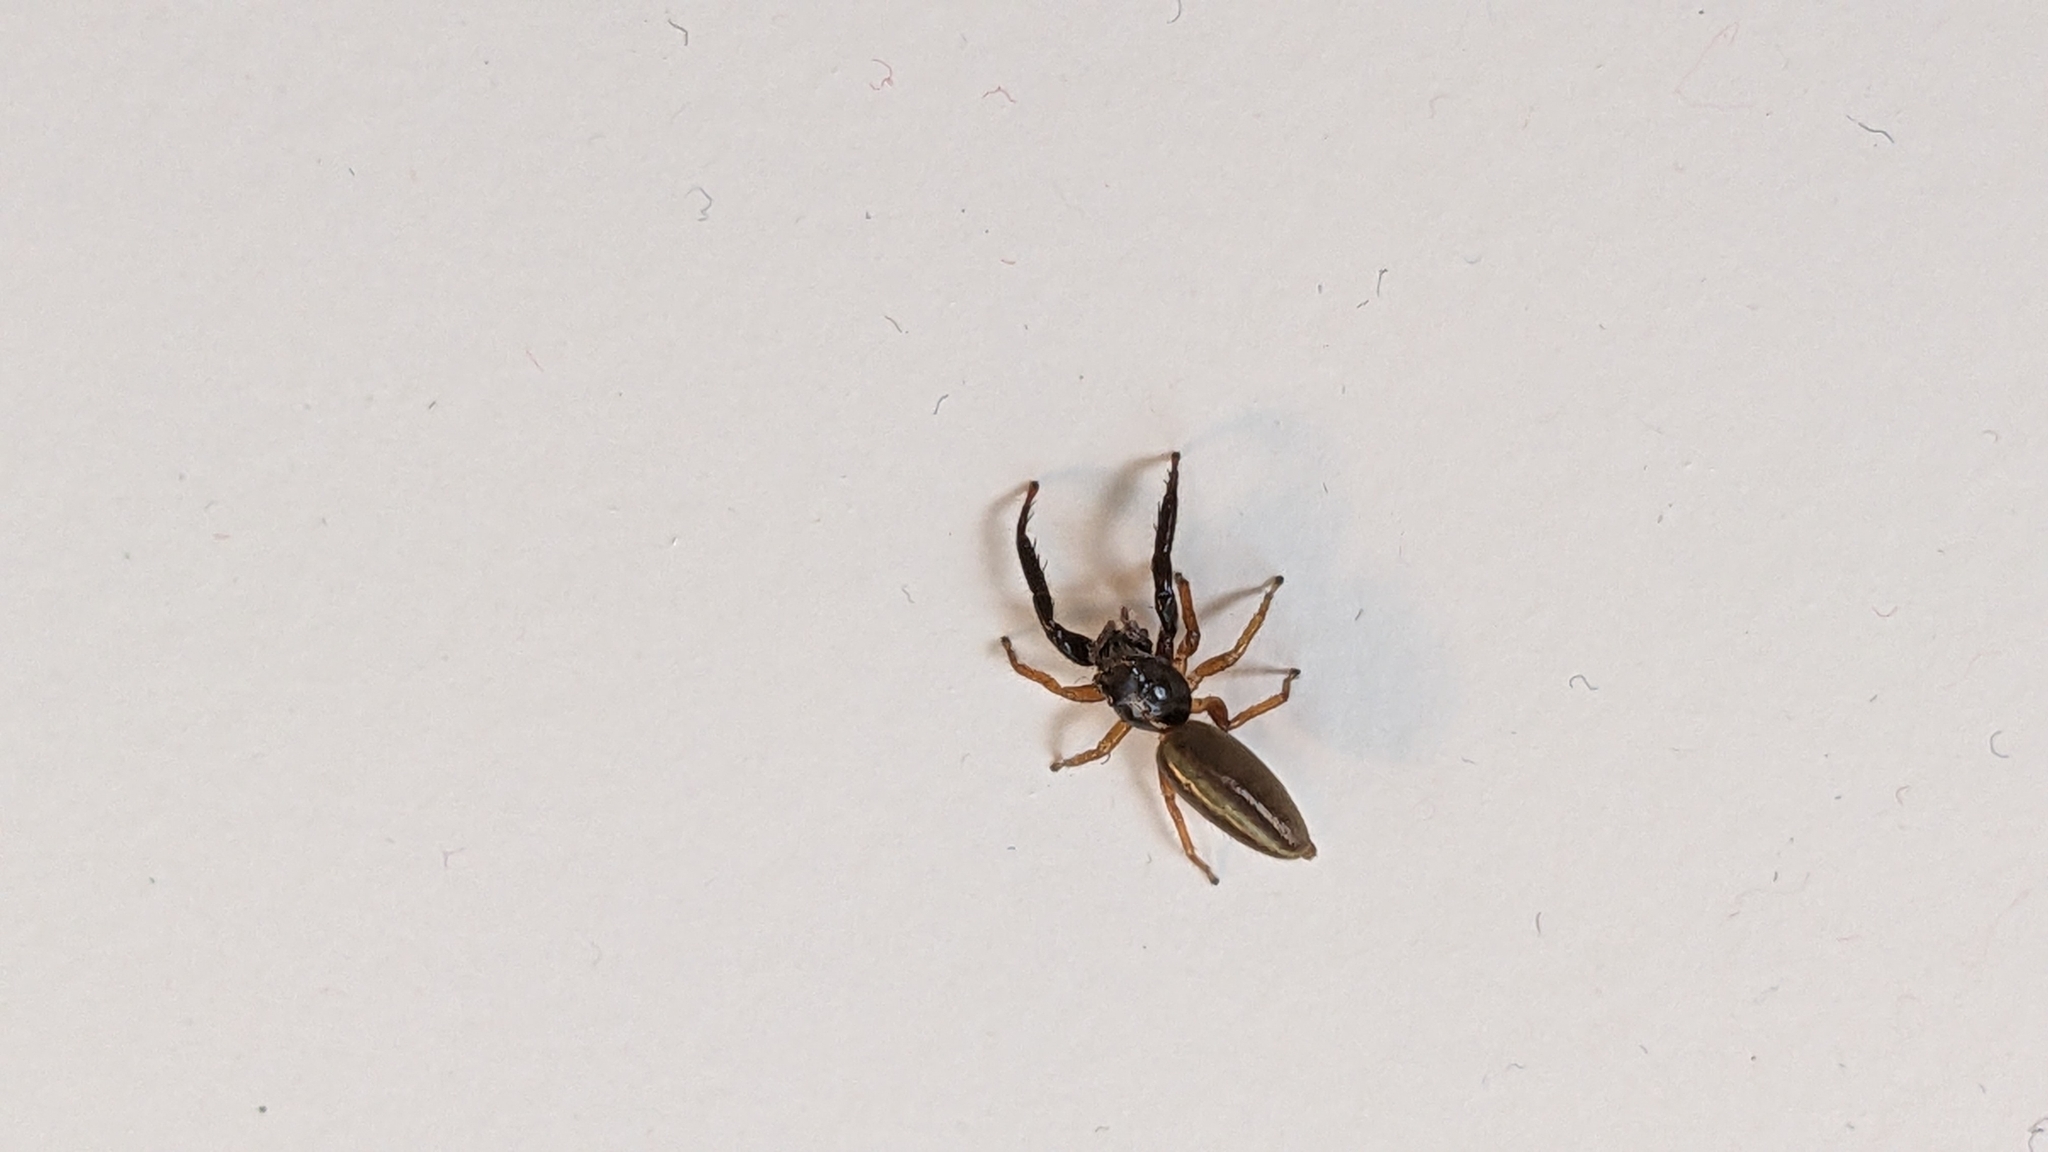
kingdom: Animalia
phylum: Arthropoda
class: Arachnida
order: Araneae
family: Salticidae
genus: Trite
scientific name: Trite planiceps
